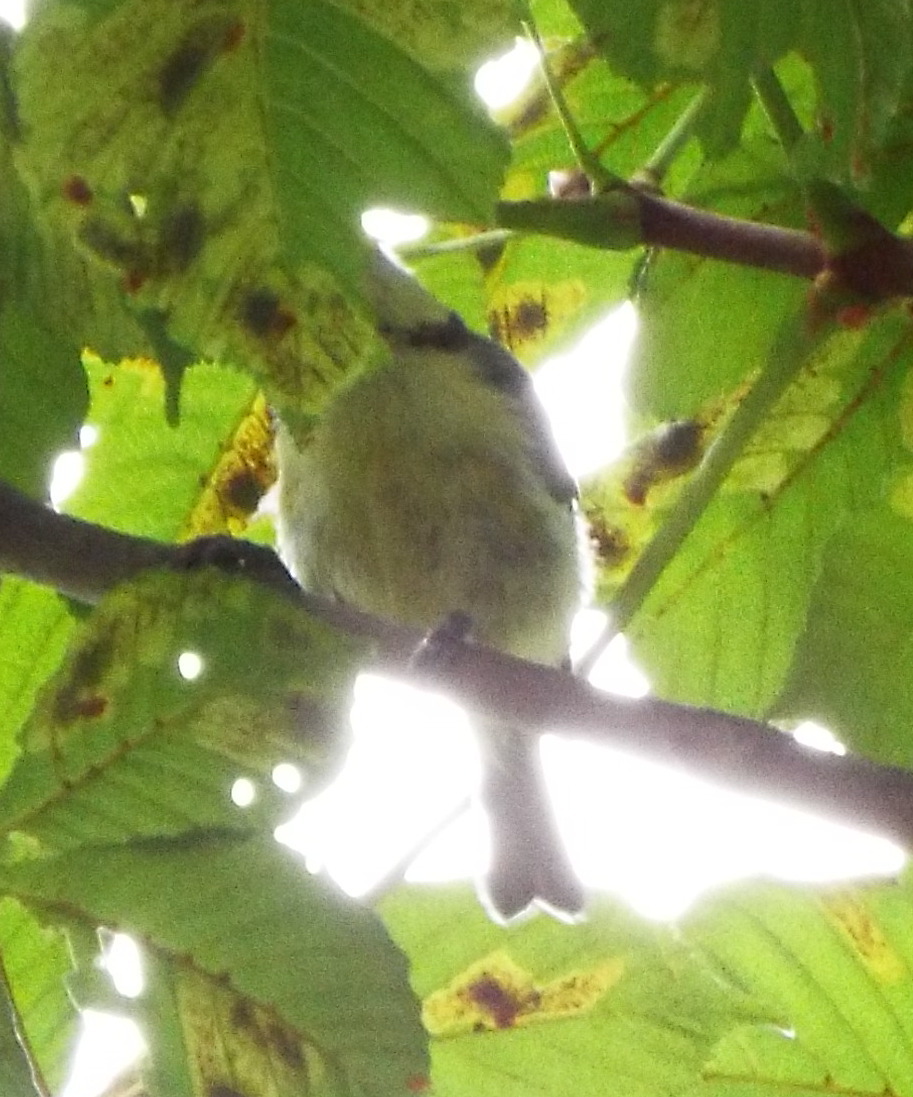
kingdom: Animalia
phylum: Chordata
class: Aves
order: Passeriformes
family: Paridae
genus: Cyanistes
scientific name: Cyanistes caeruleus
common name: Eurasian blue tit
